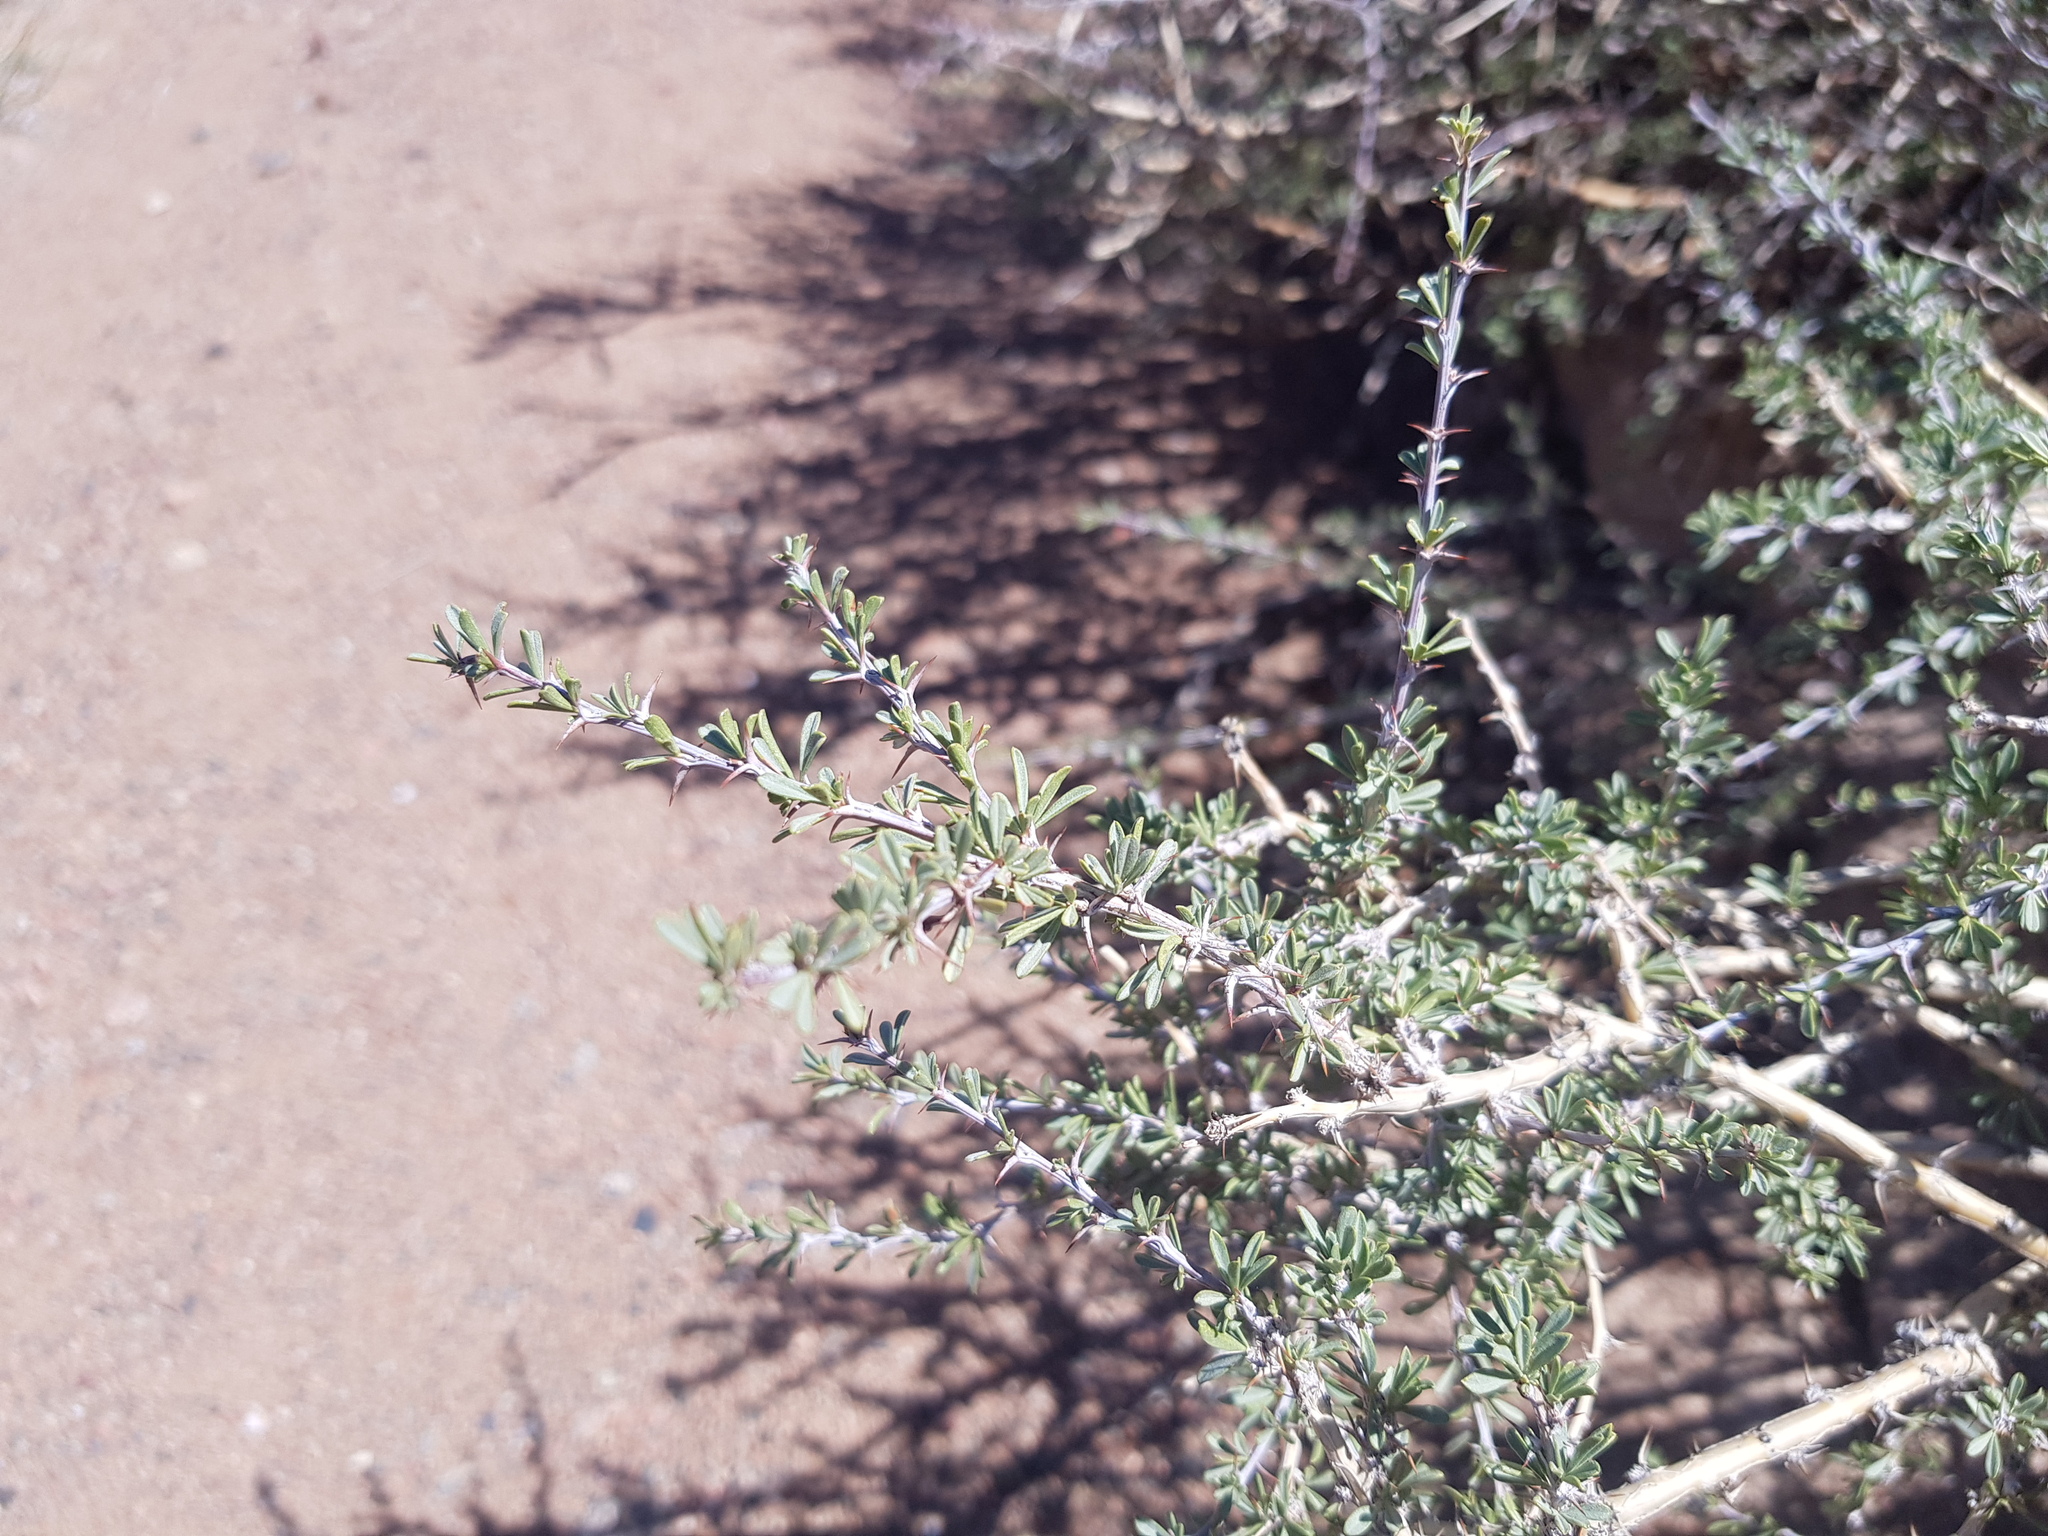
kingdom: Plantae
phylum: Tracheophyta
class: Magnoliopsida
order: Fabales
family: Fabaceae
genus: Caragana
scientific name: Caragana leucophloea
